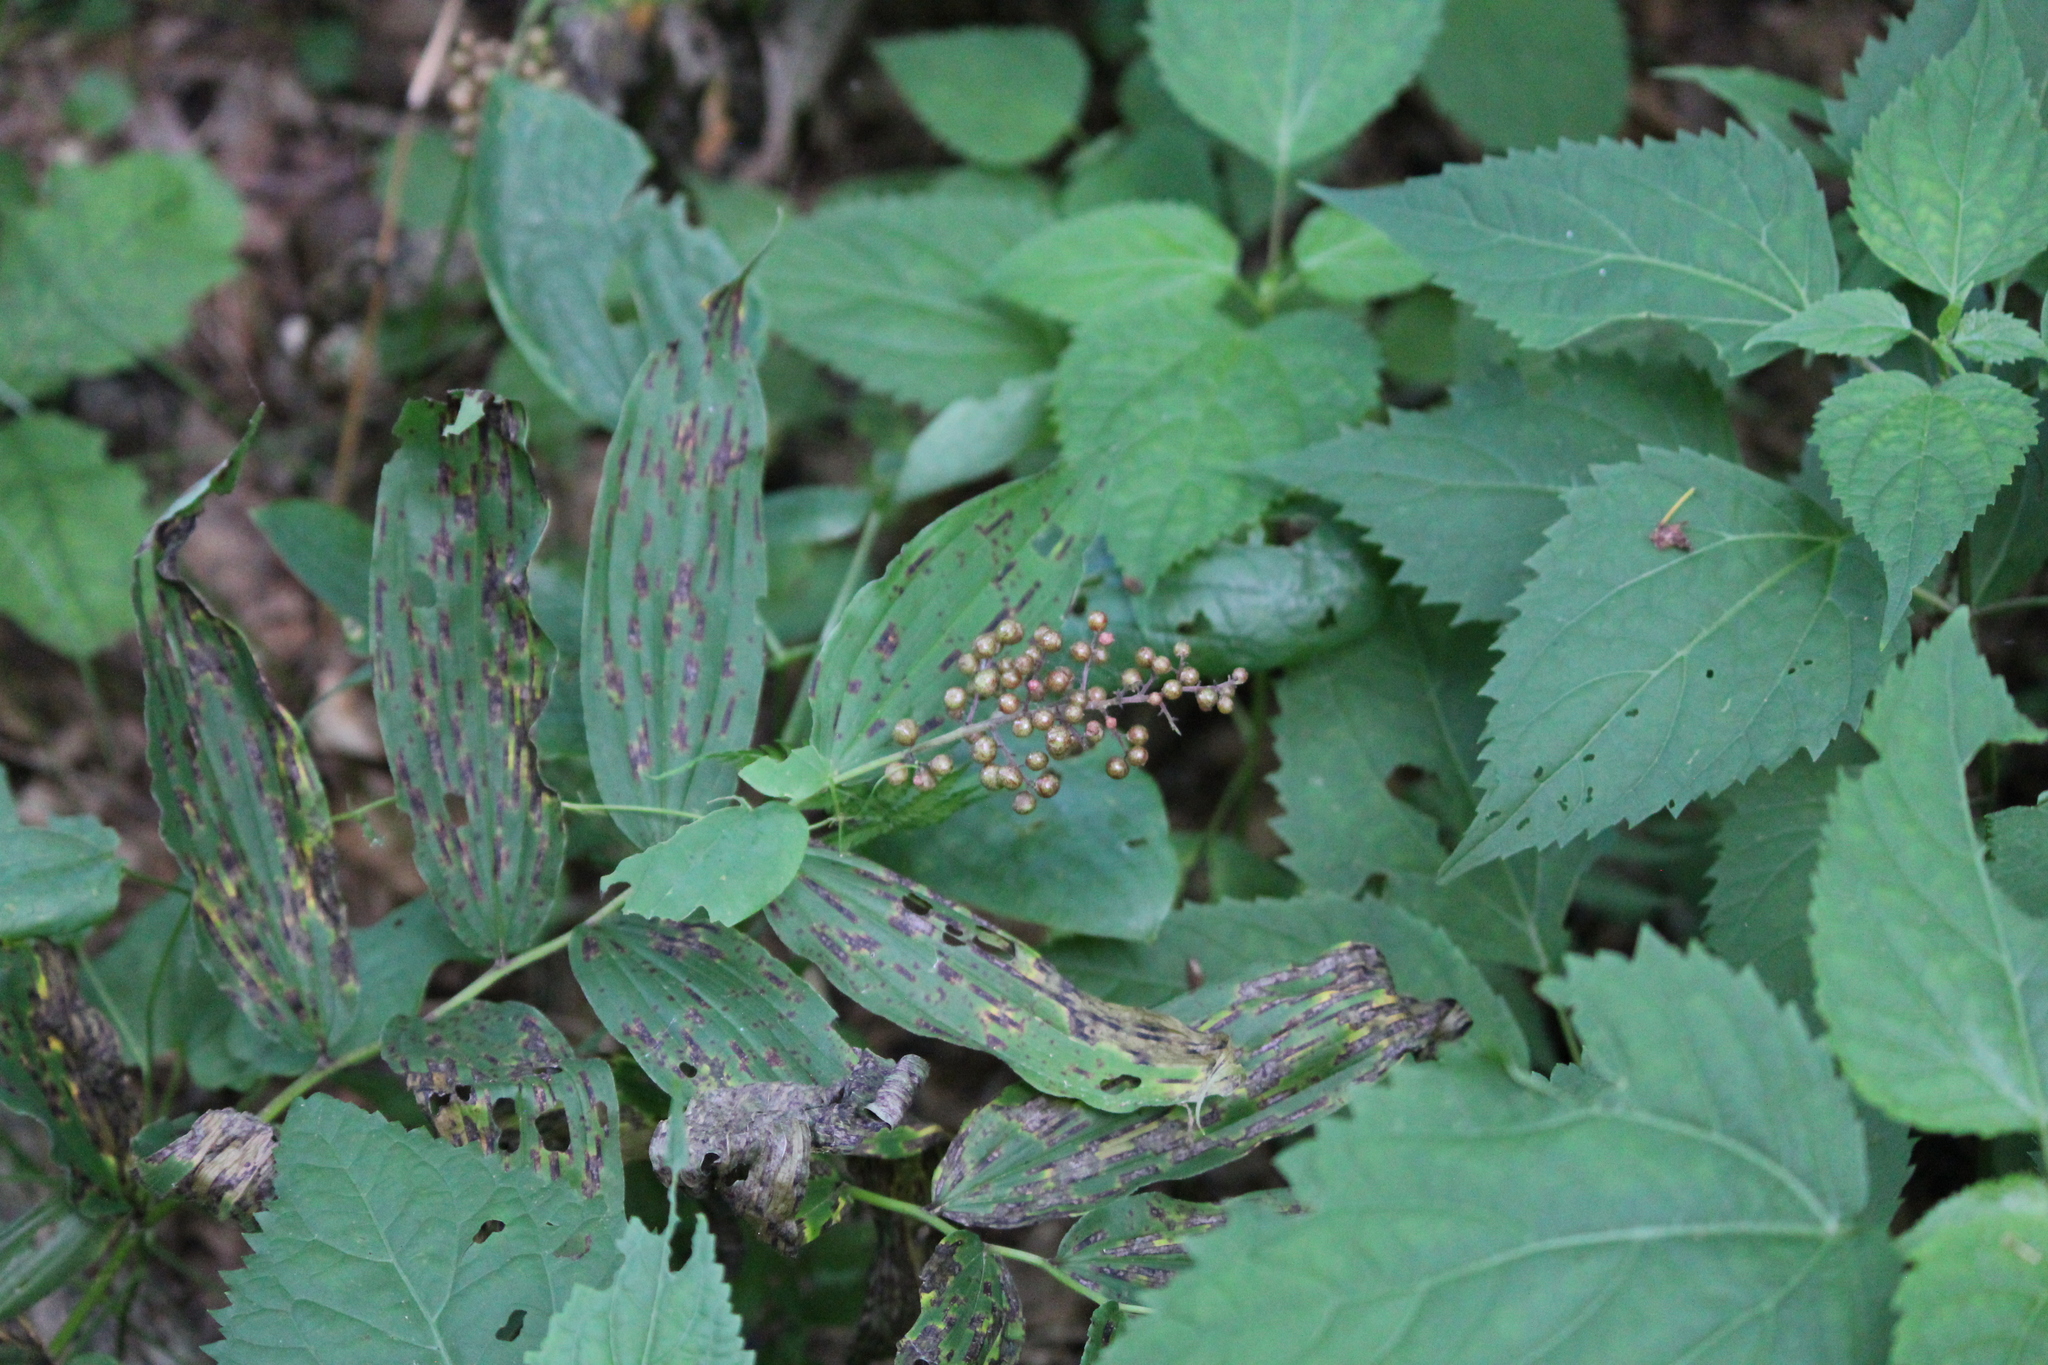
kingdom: Plantae
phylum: Tracheophyta
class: Liliopsida
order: Asparagales
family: Asparagaceae
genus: Maianthemum
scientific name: Maianthemum racemosum
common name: False spikenard
